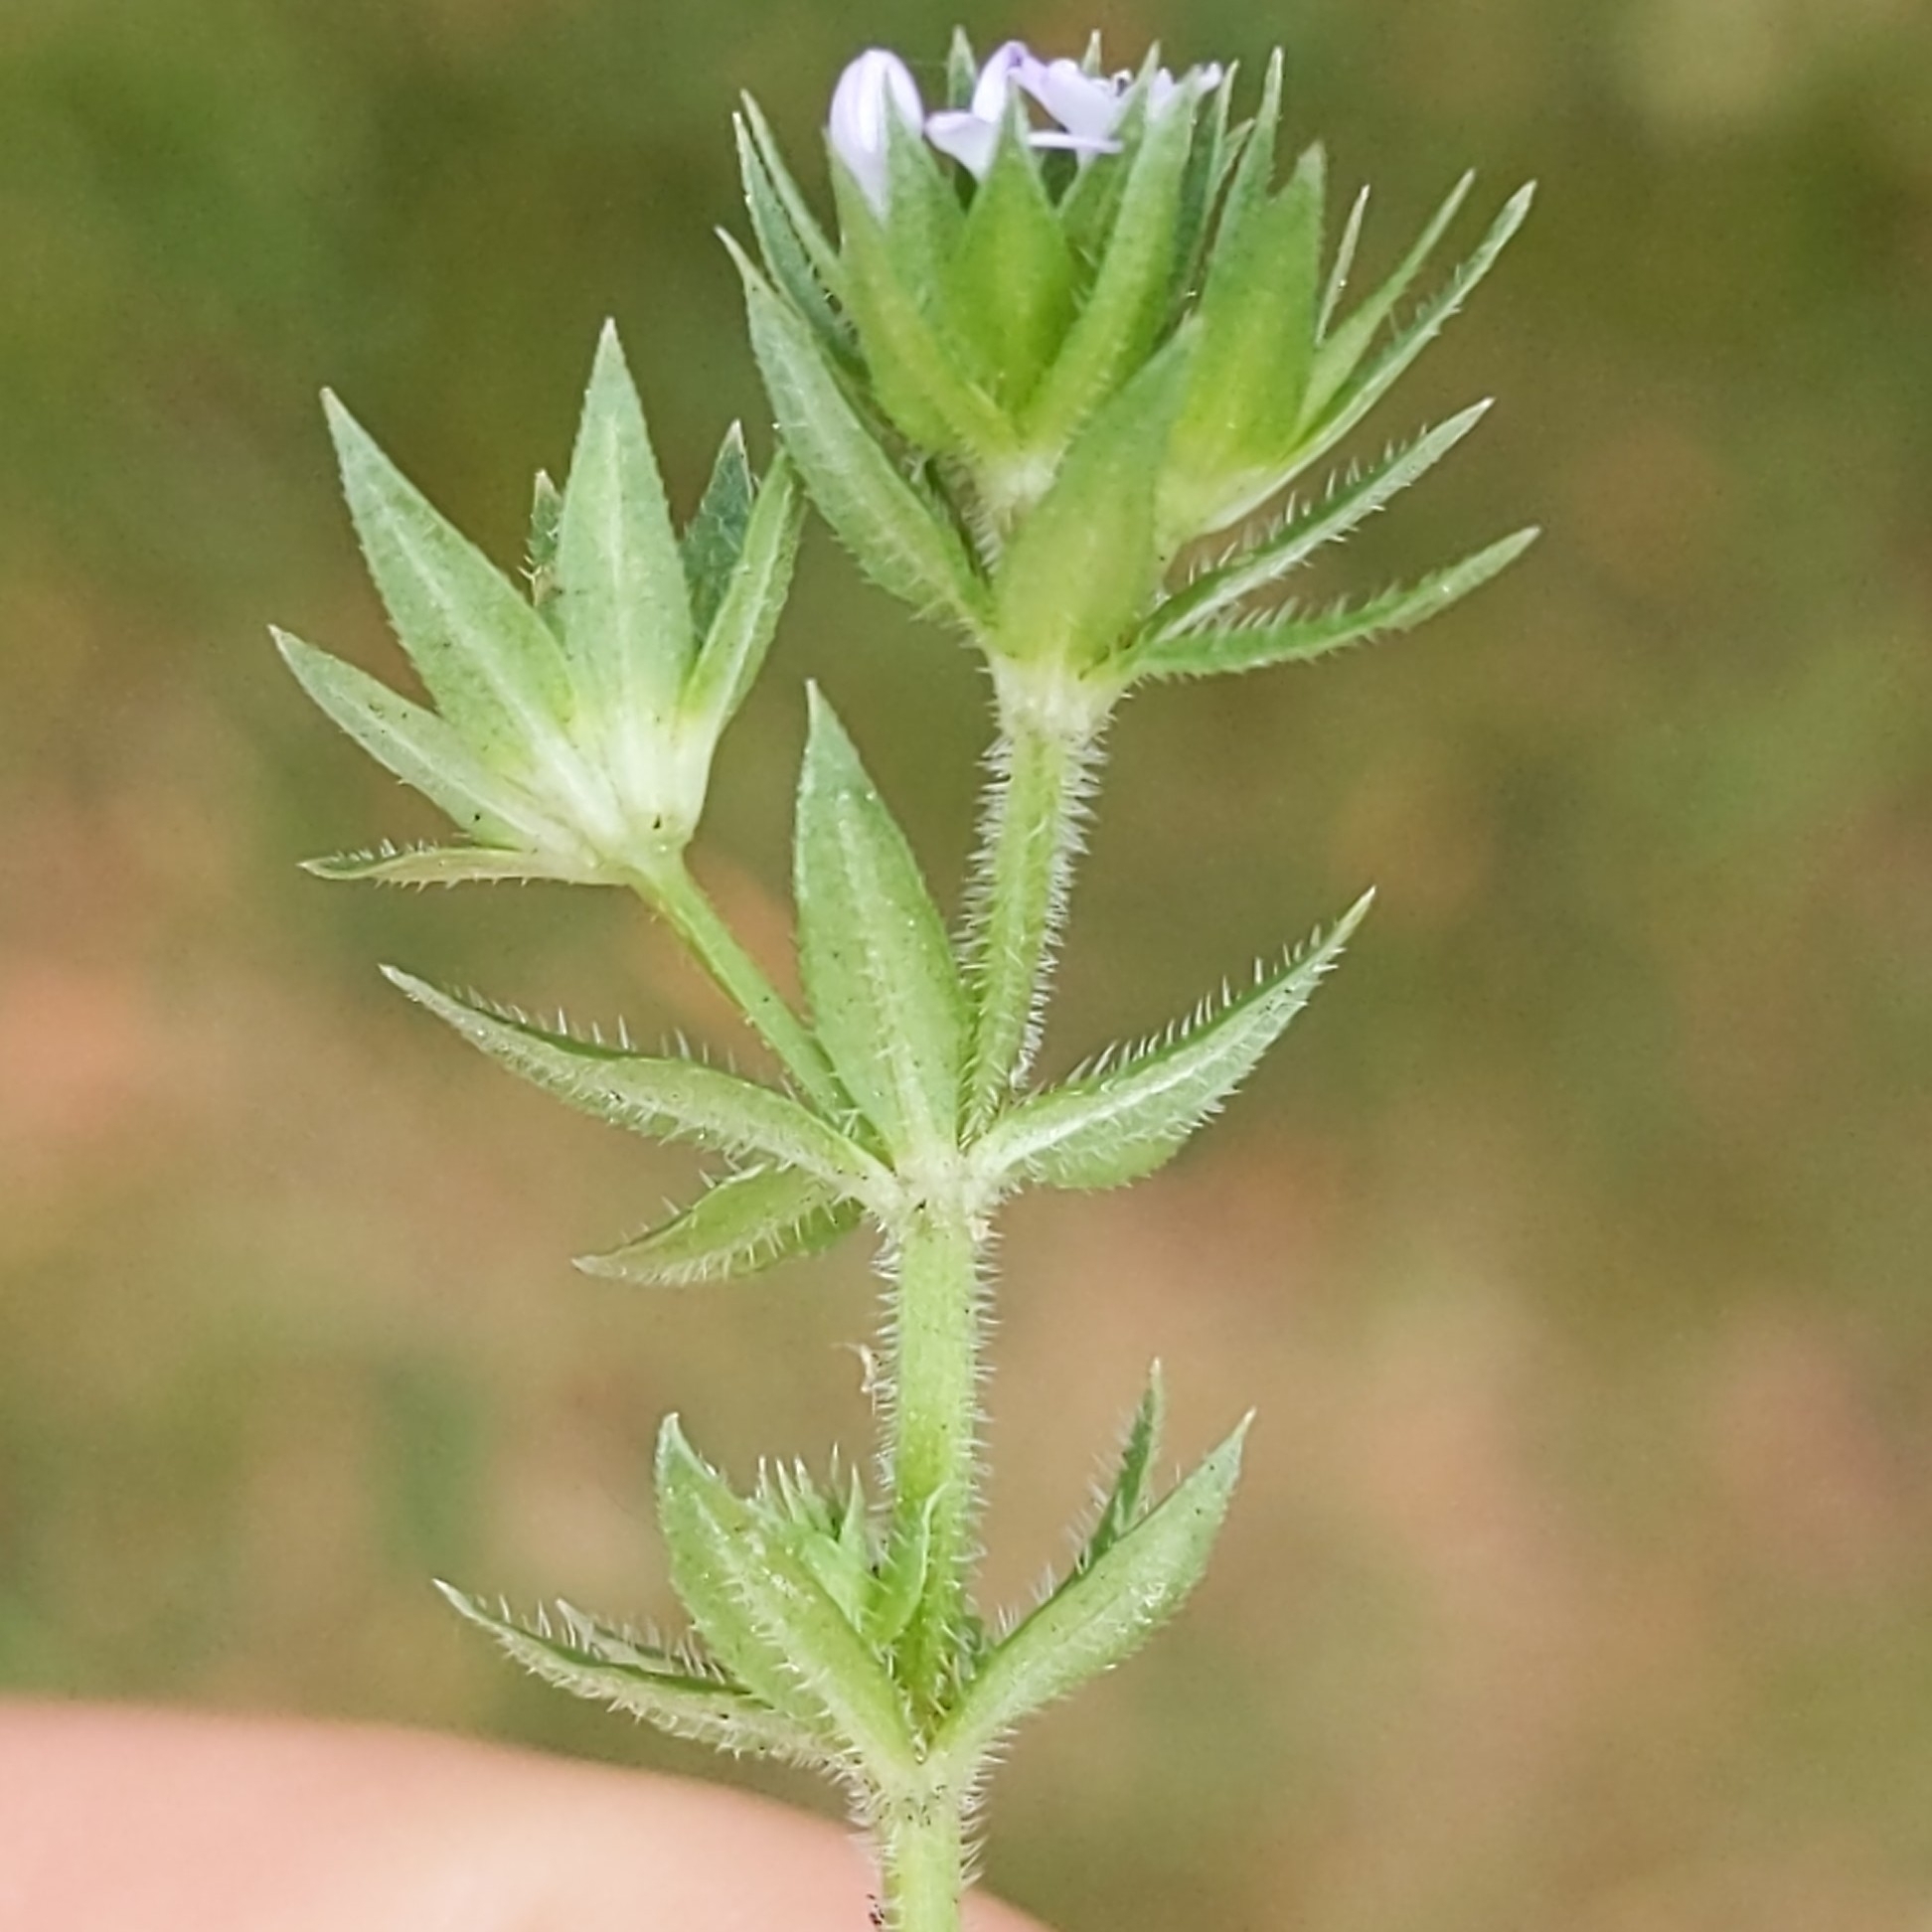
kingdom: Plantae
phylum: Tracheophyta
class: Magnoliopsida
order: Gentianales
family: Rubiaceae
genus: Sherardia
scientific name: Sherardia arvensis
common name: Field madder
